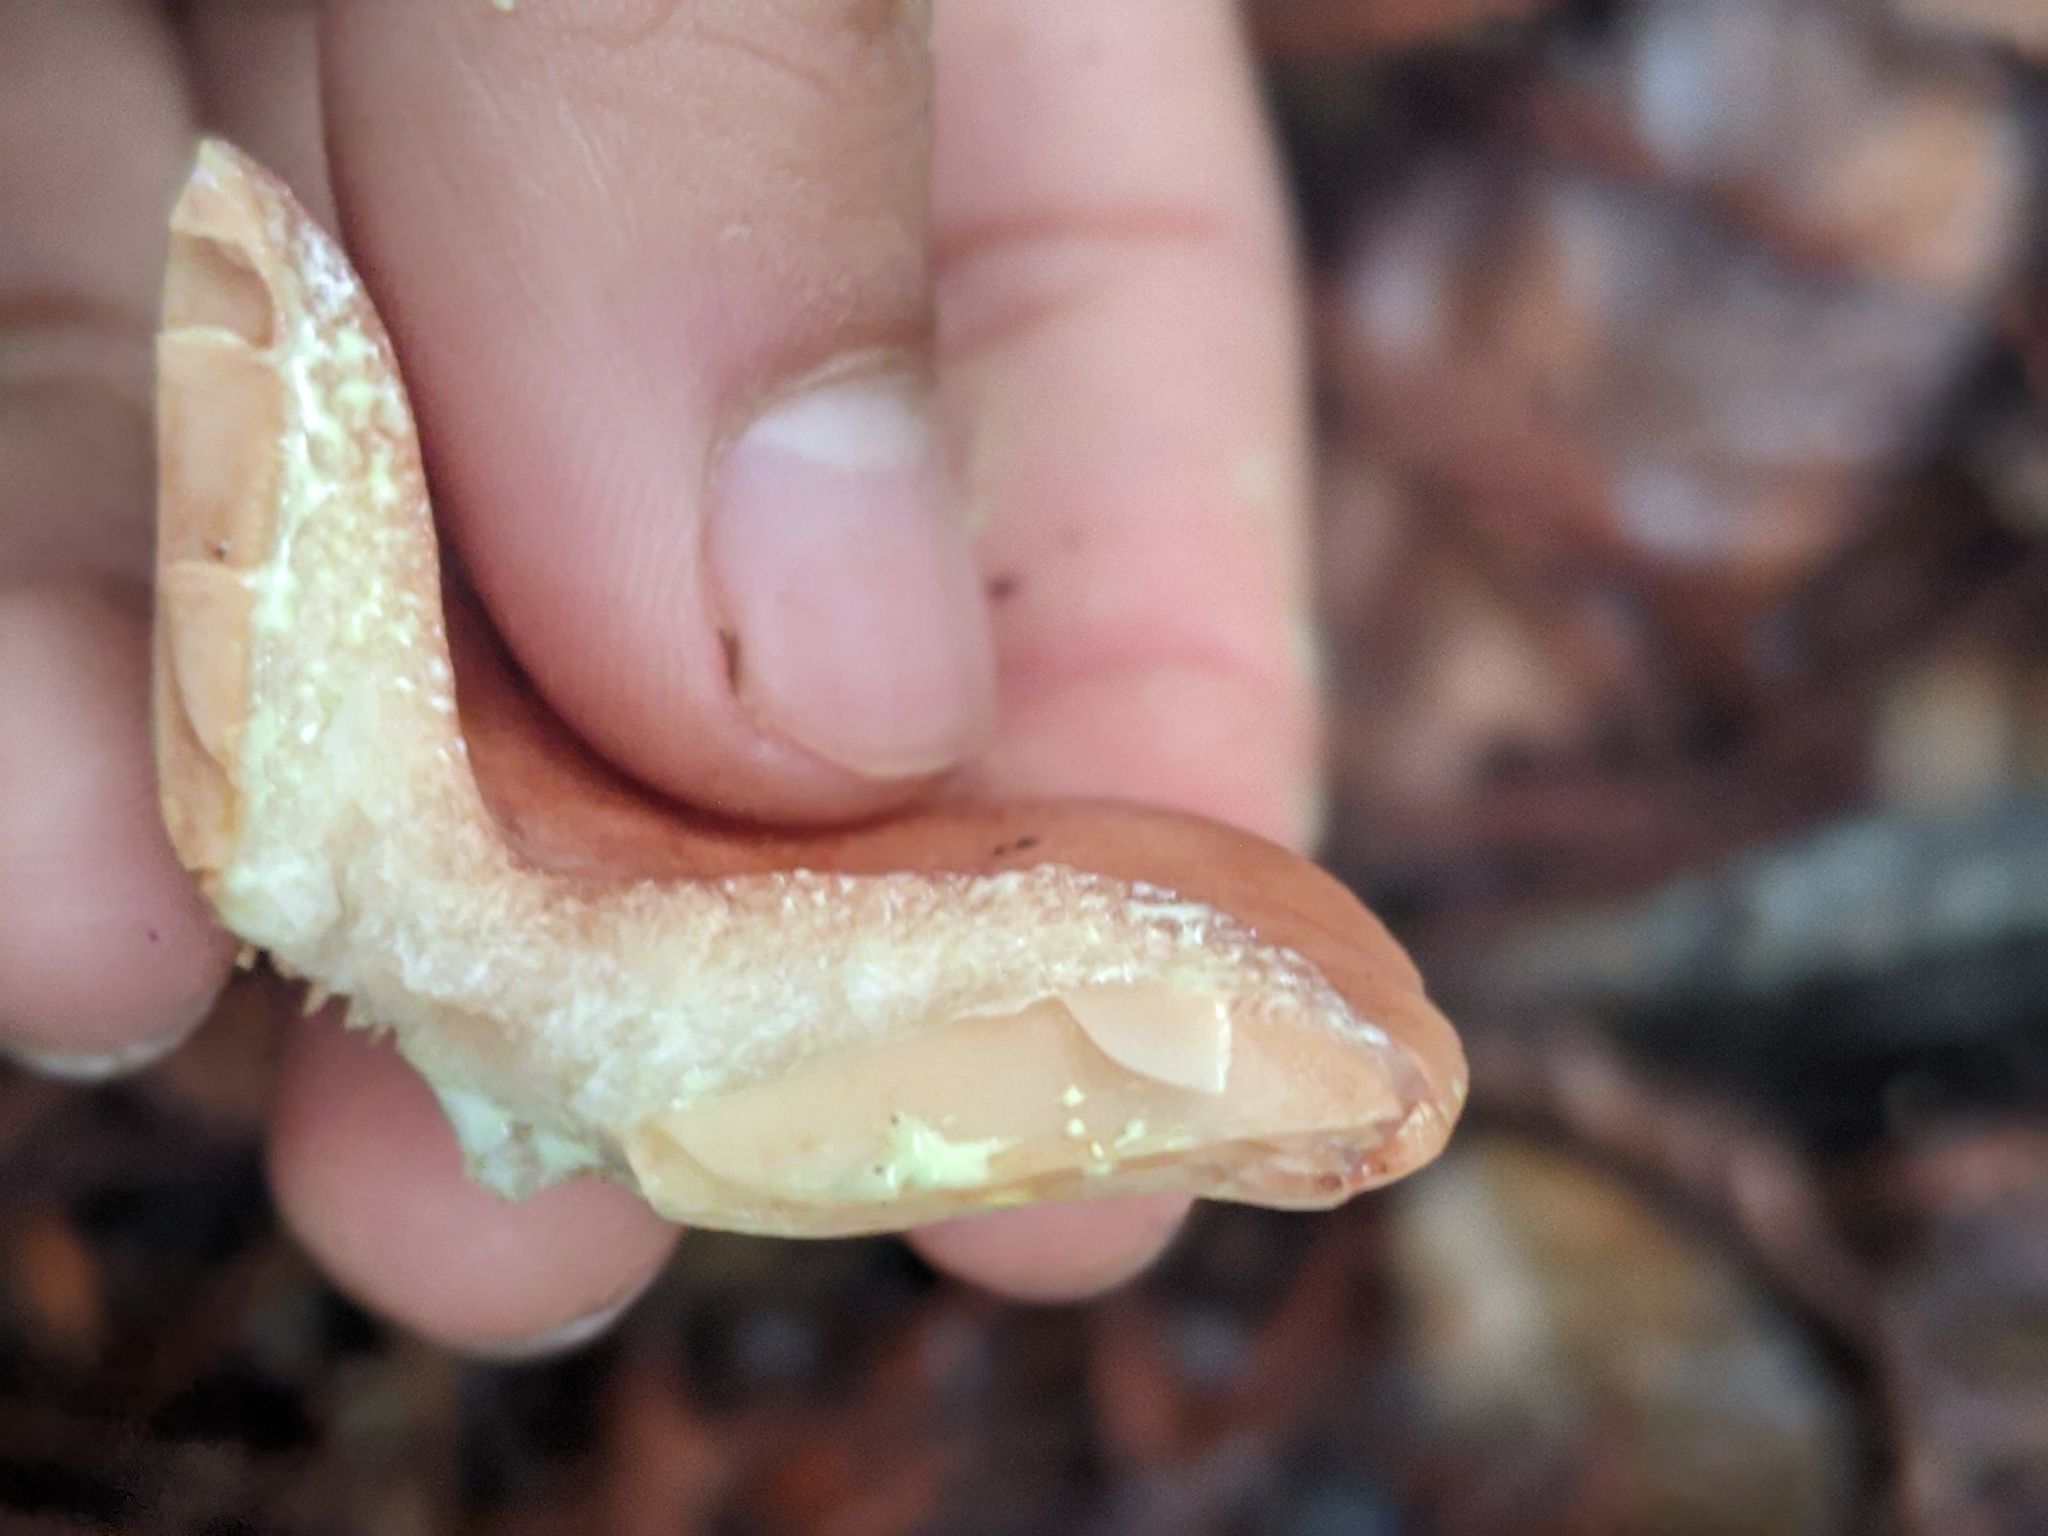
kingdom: Fungi
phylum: Basidiomycota
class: Agaricomycetes
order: Russulales
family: Russulaceae
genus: Lactarius
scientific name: Lactarius xanthogalactus
